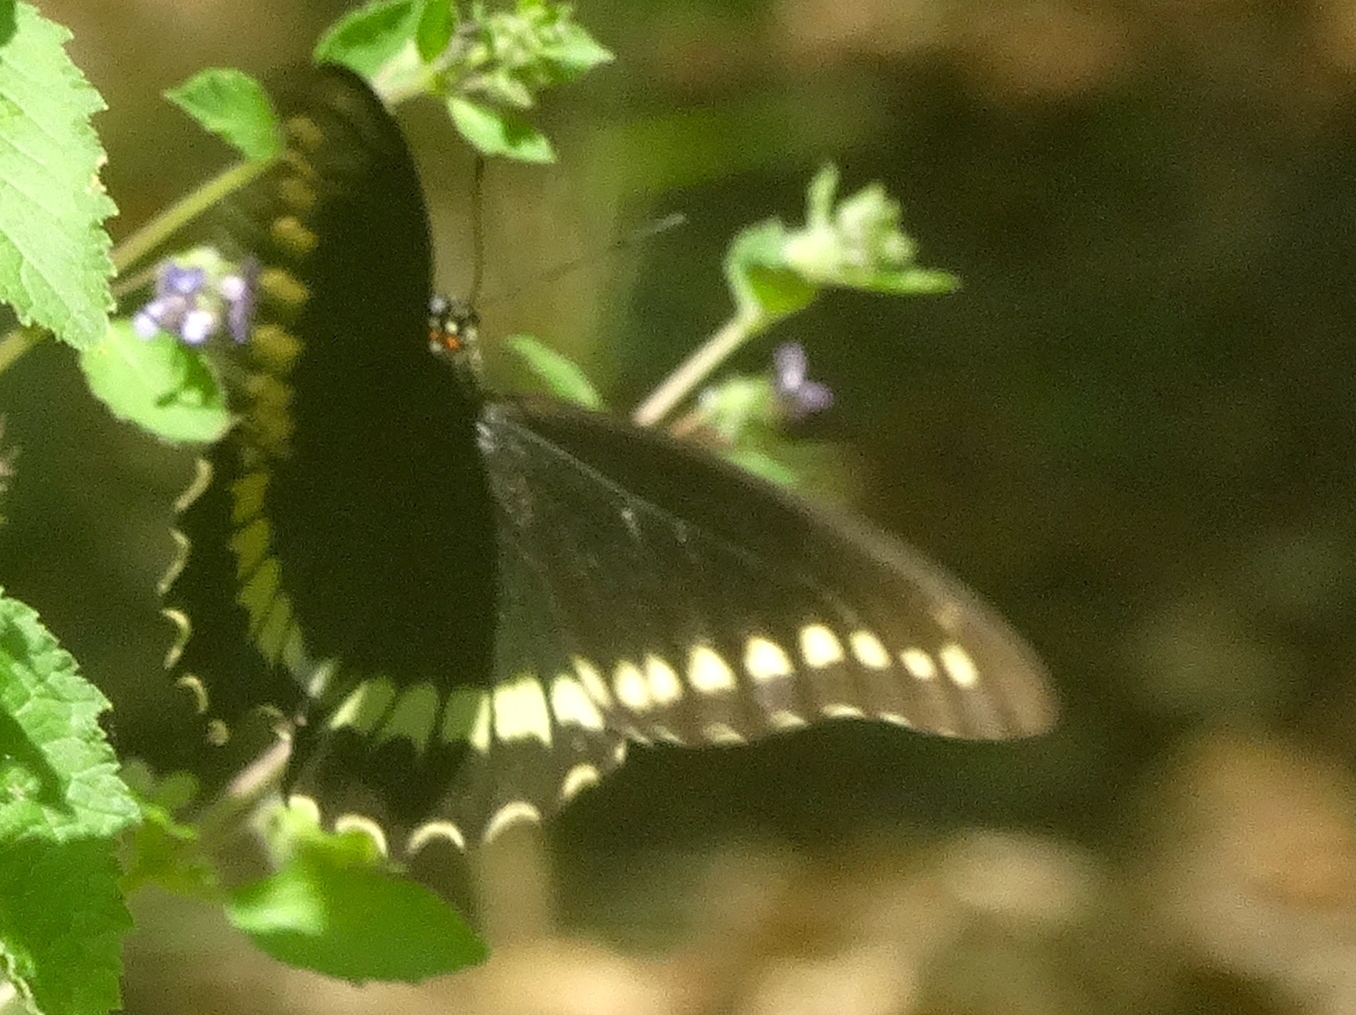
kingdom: Animalia
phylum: Arthropoda
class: Insecta
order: Lepidoptera
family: Papilionidae
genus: Battus
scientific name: Battus polydamas
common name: Polydamas swallowtail
